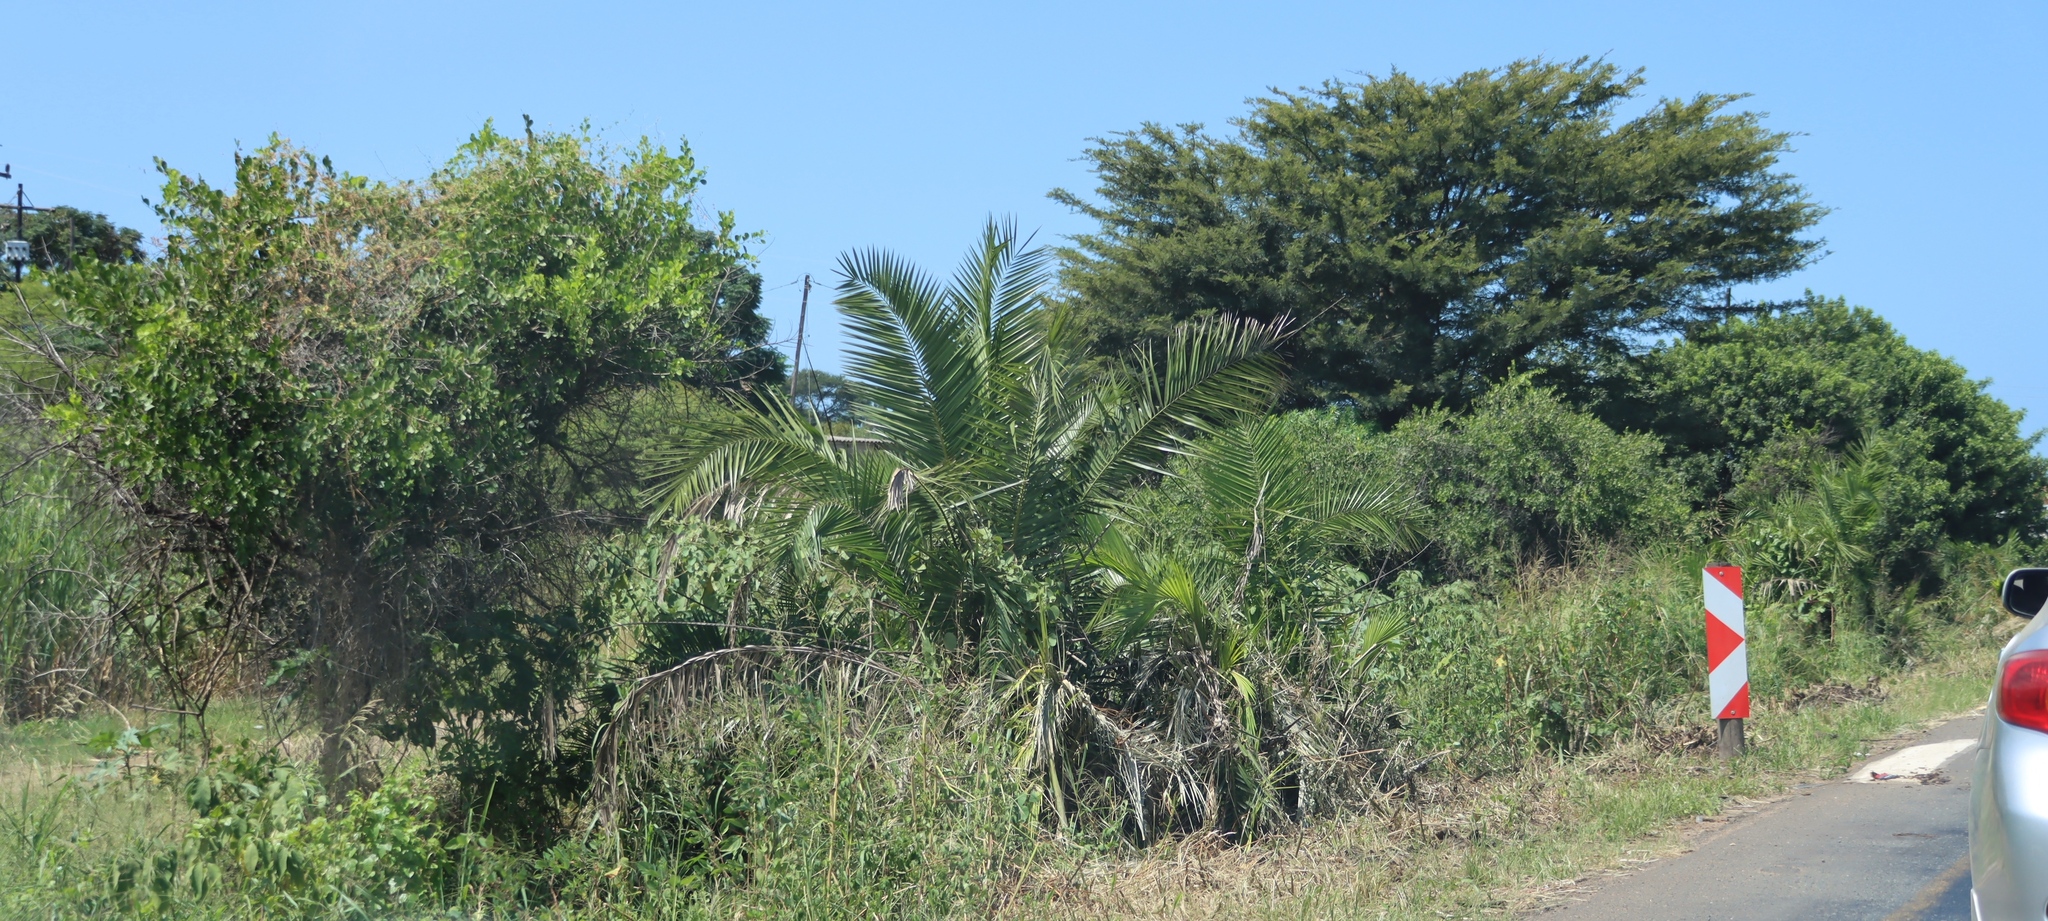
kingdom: Plantae
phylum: Tracheophyta
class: Liliopsida
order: Arecales
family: Arecaceae
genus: Phoenix
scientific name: Phoenix reclinata
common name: Senegal date palm
